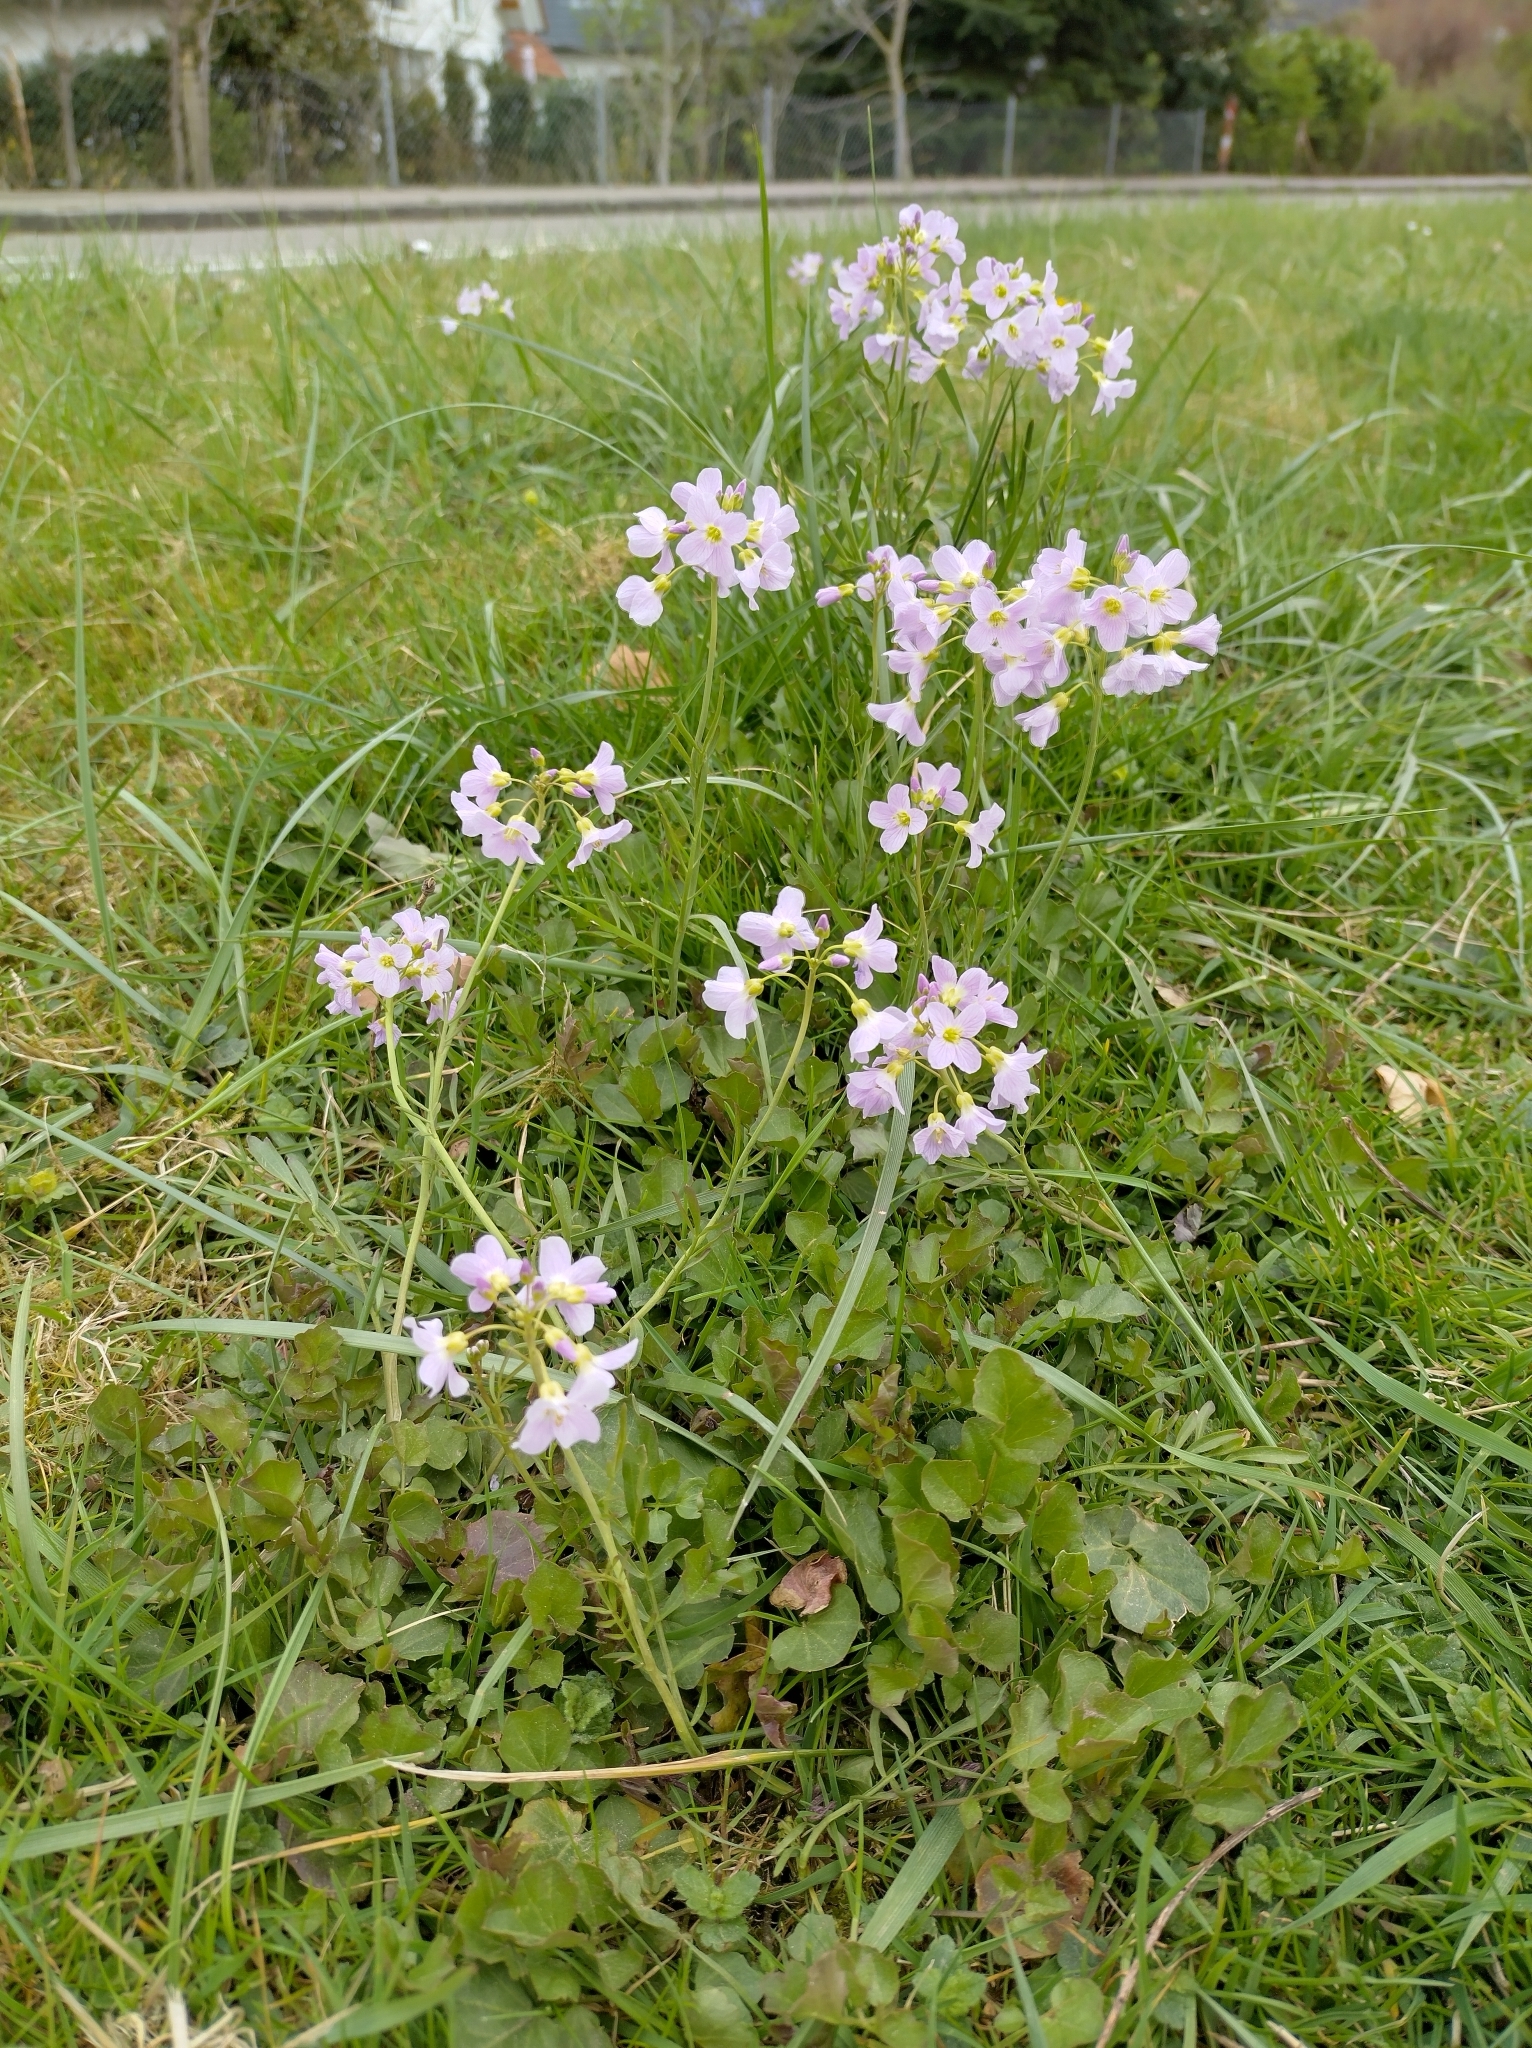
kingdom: Plantae
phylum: Tracheophyta
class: Magnoliopsida
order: Brassicales
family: Brassicaceae
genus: Cardamine
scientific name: Cardamine pratensis
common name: Cuckoo flower
